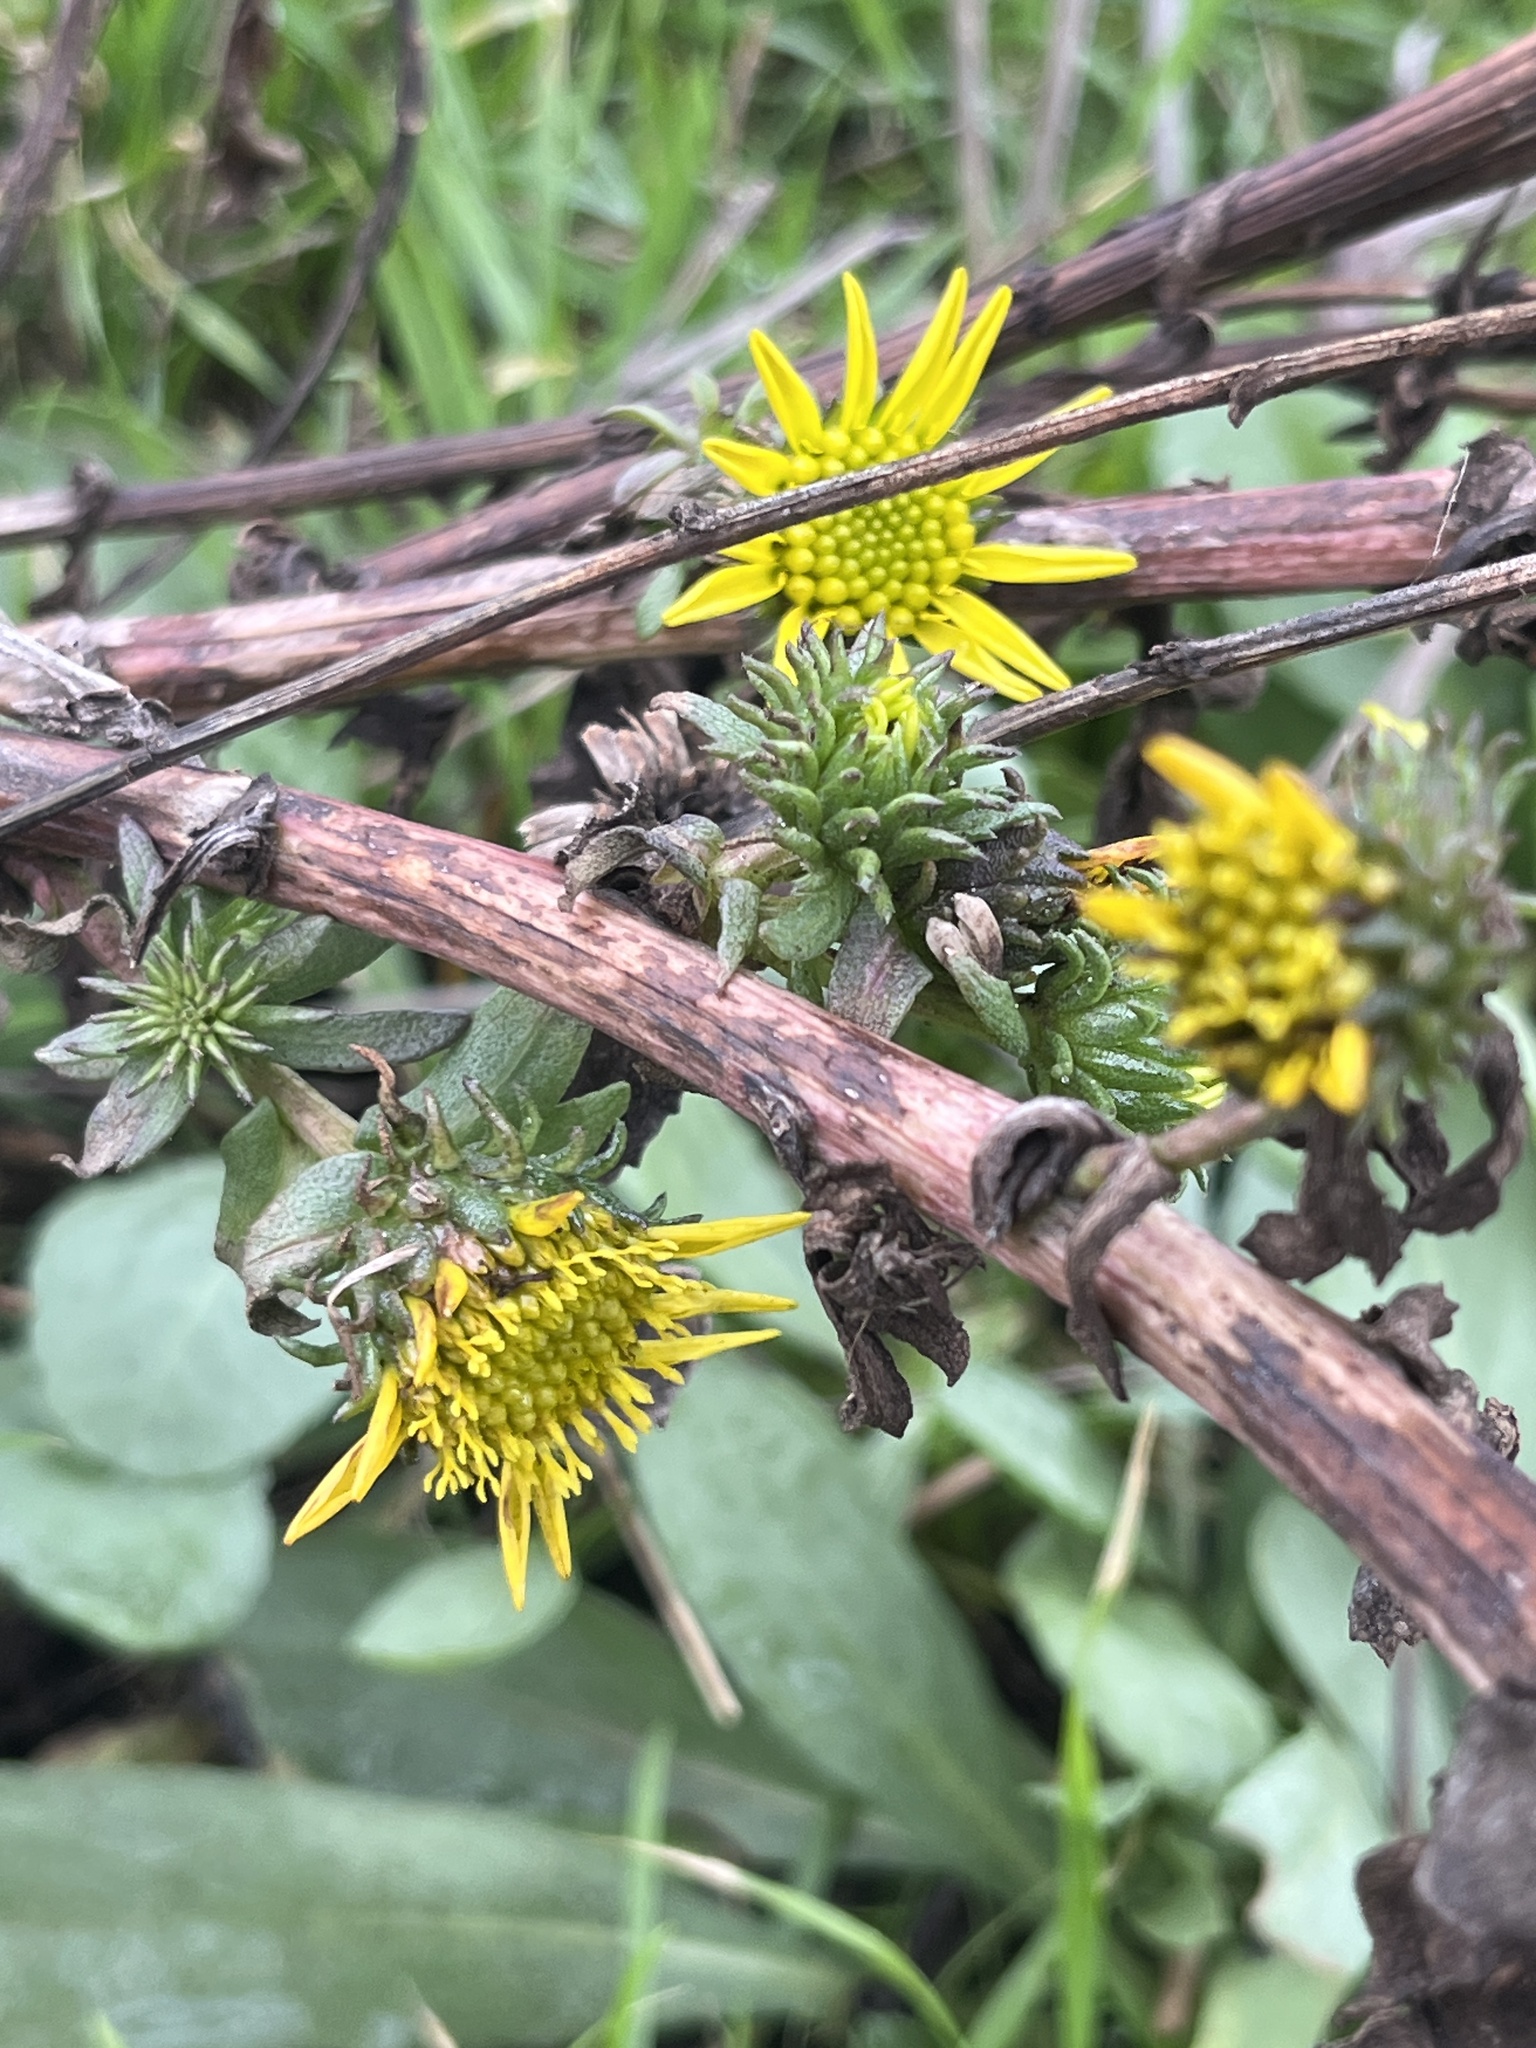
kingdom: Plantae
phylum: Tracheophyta
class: Magnoliopsida
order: Asterales
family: Asteraceae
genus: Grindelia
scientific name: Grindelia hirsutula
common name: Hairy gumweed
